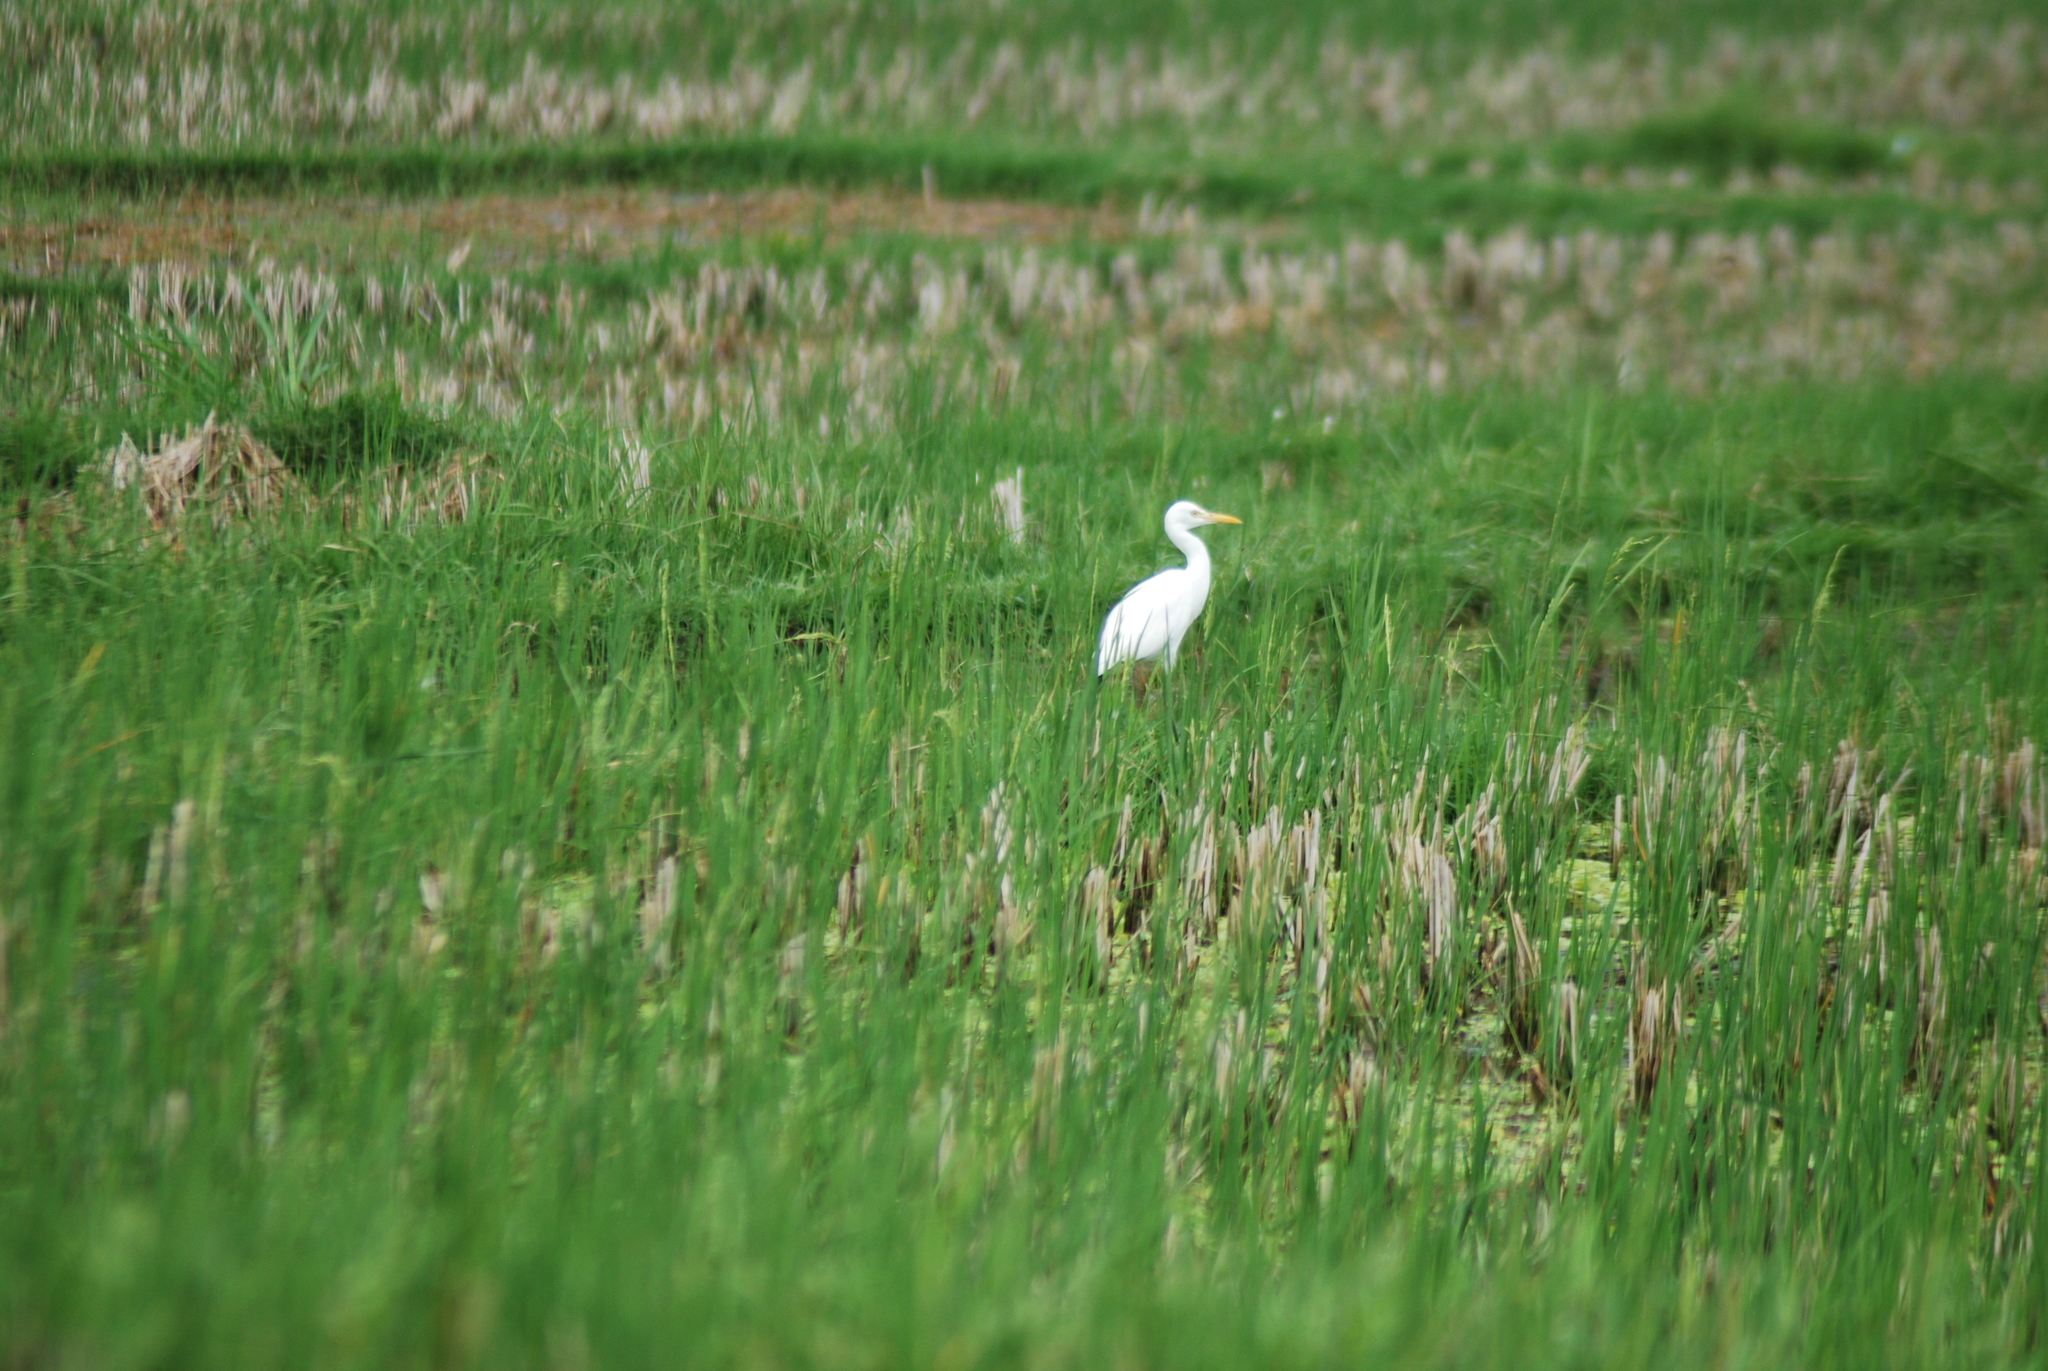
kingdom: Animalia
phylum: Chordata
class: Aves
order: Pelecaniformes
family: Ardeidae
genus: Bubulcus
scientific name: Bubulcus coromandus
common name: Eastern cattle egret
